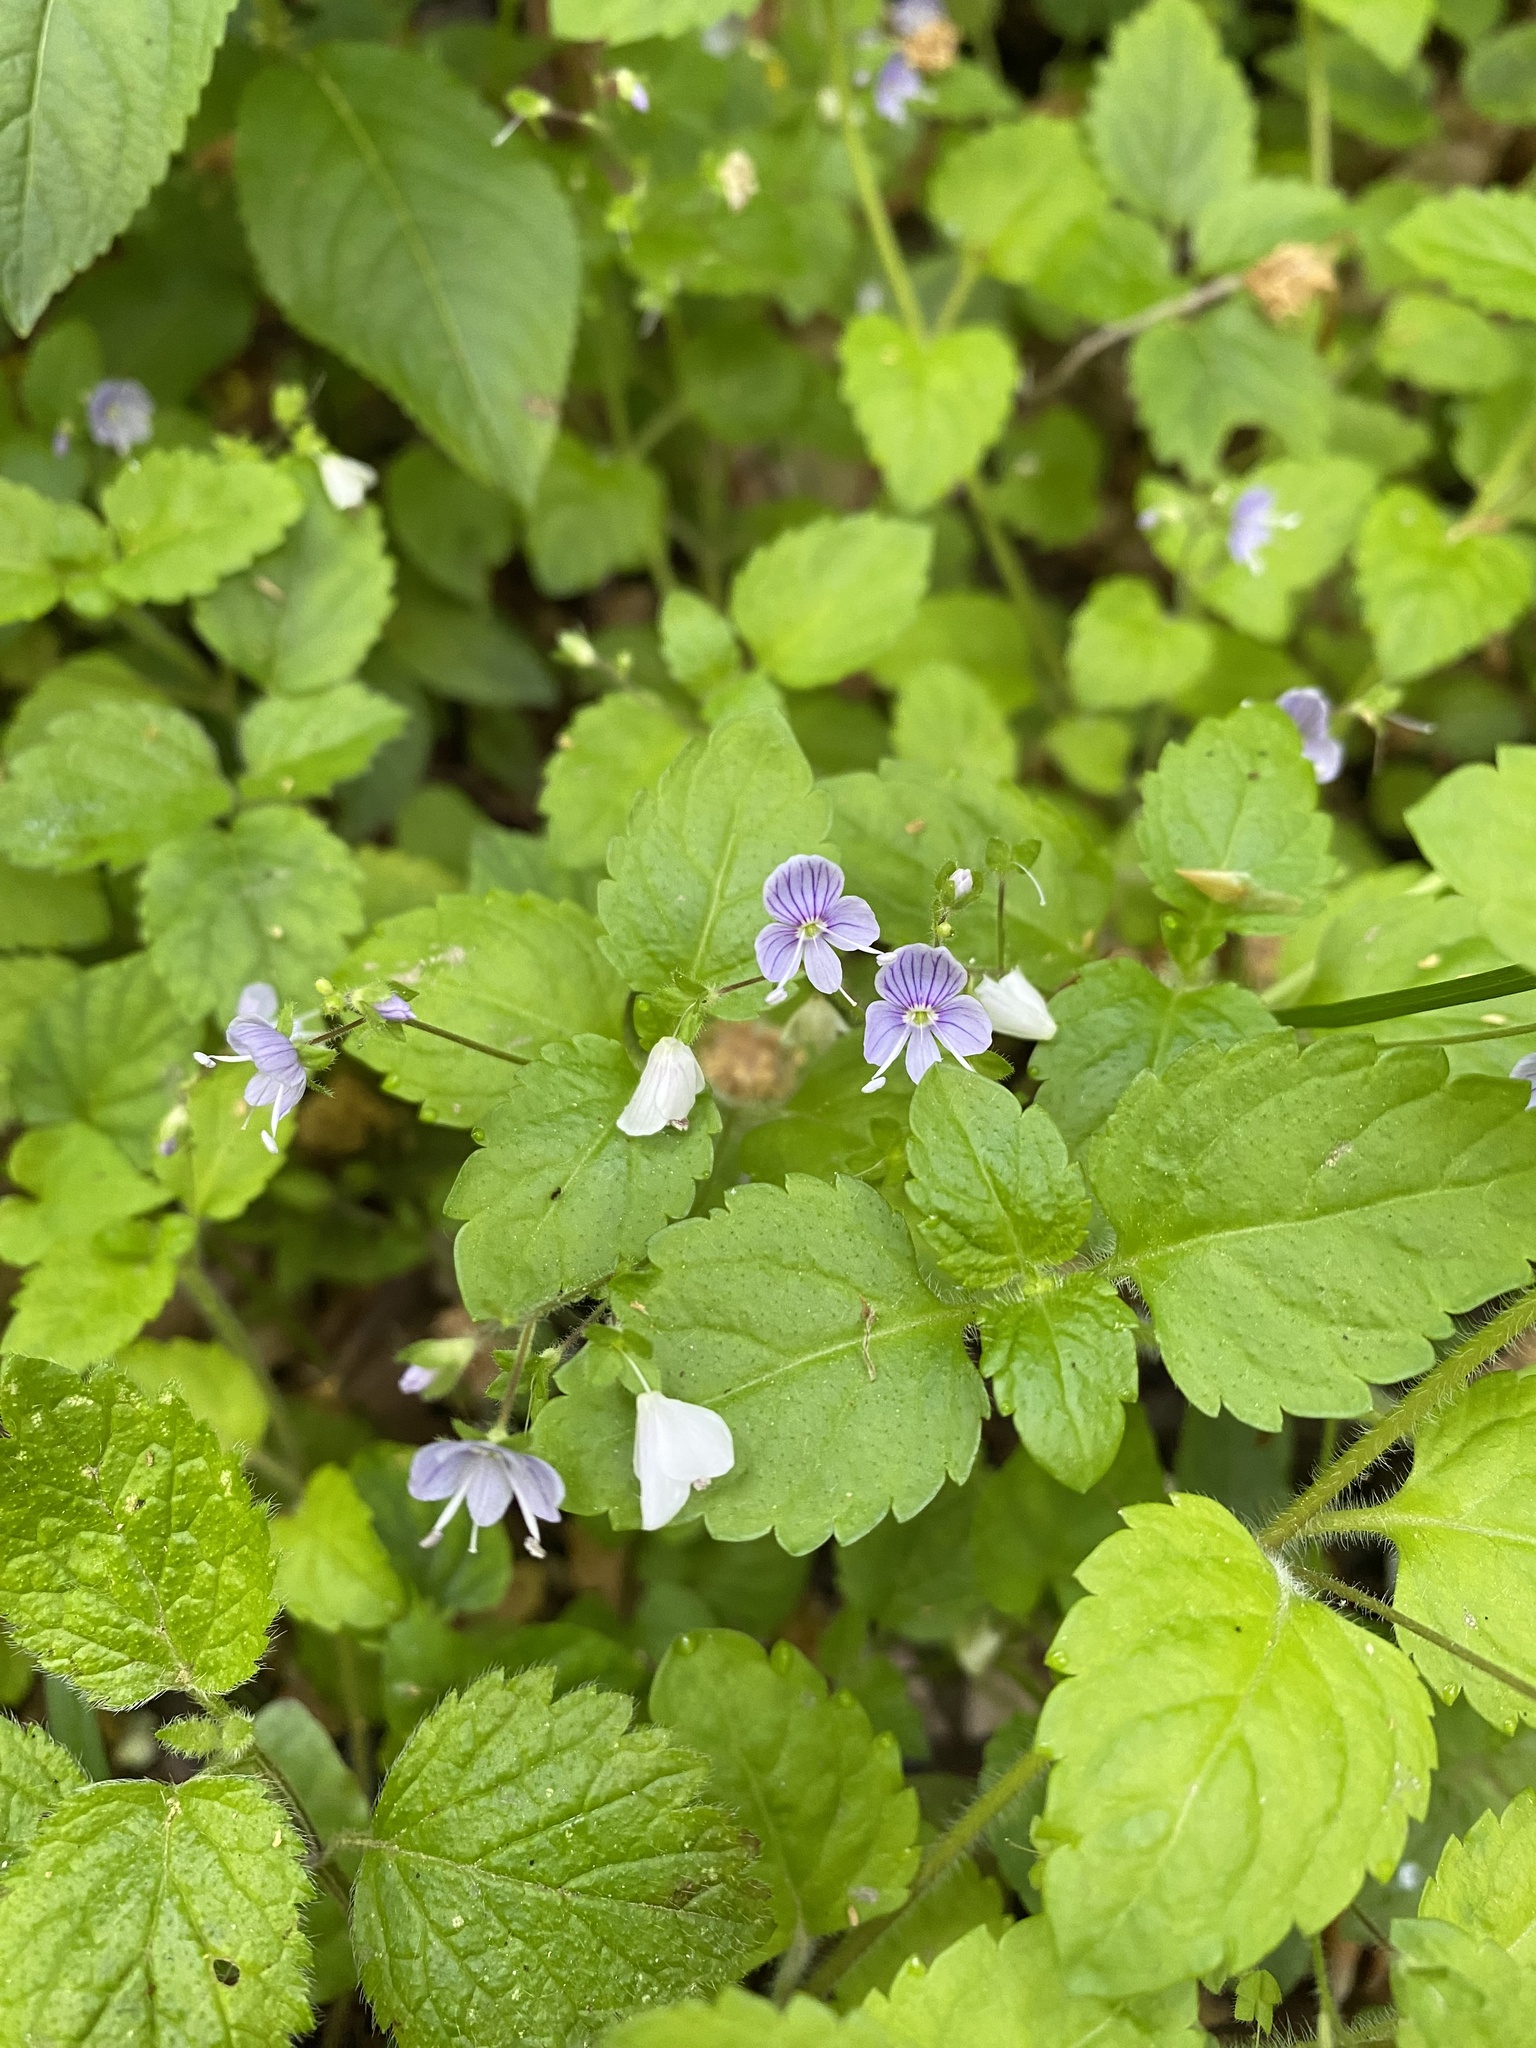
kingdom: Plantae
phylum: Tracheophyta
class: Magnoliopsida
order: Lamiales
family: Plantaginaceae
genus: Veronica
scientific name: Veronica montana
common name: Wood speedwell
